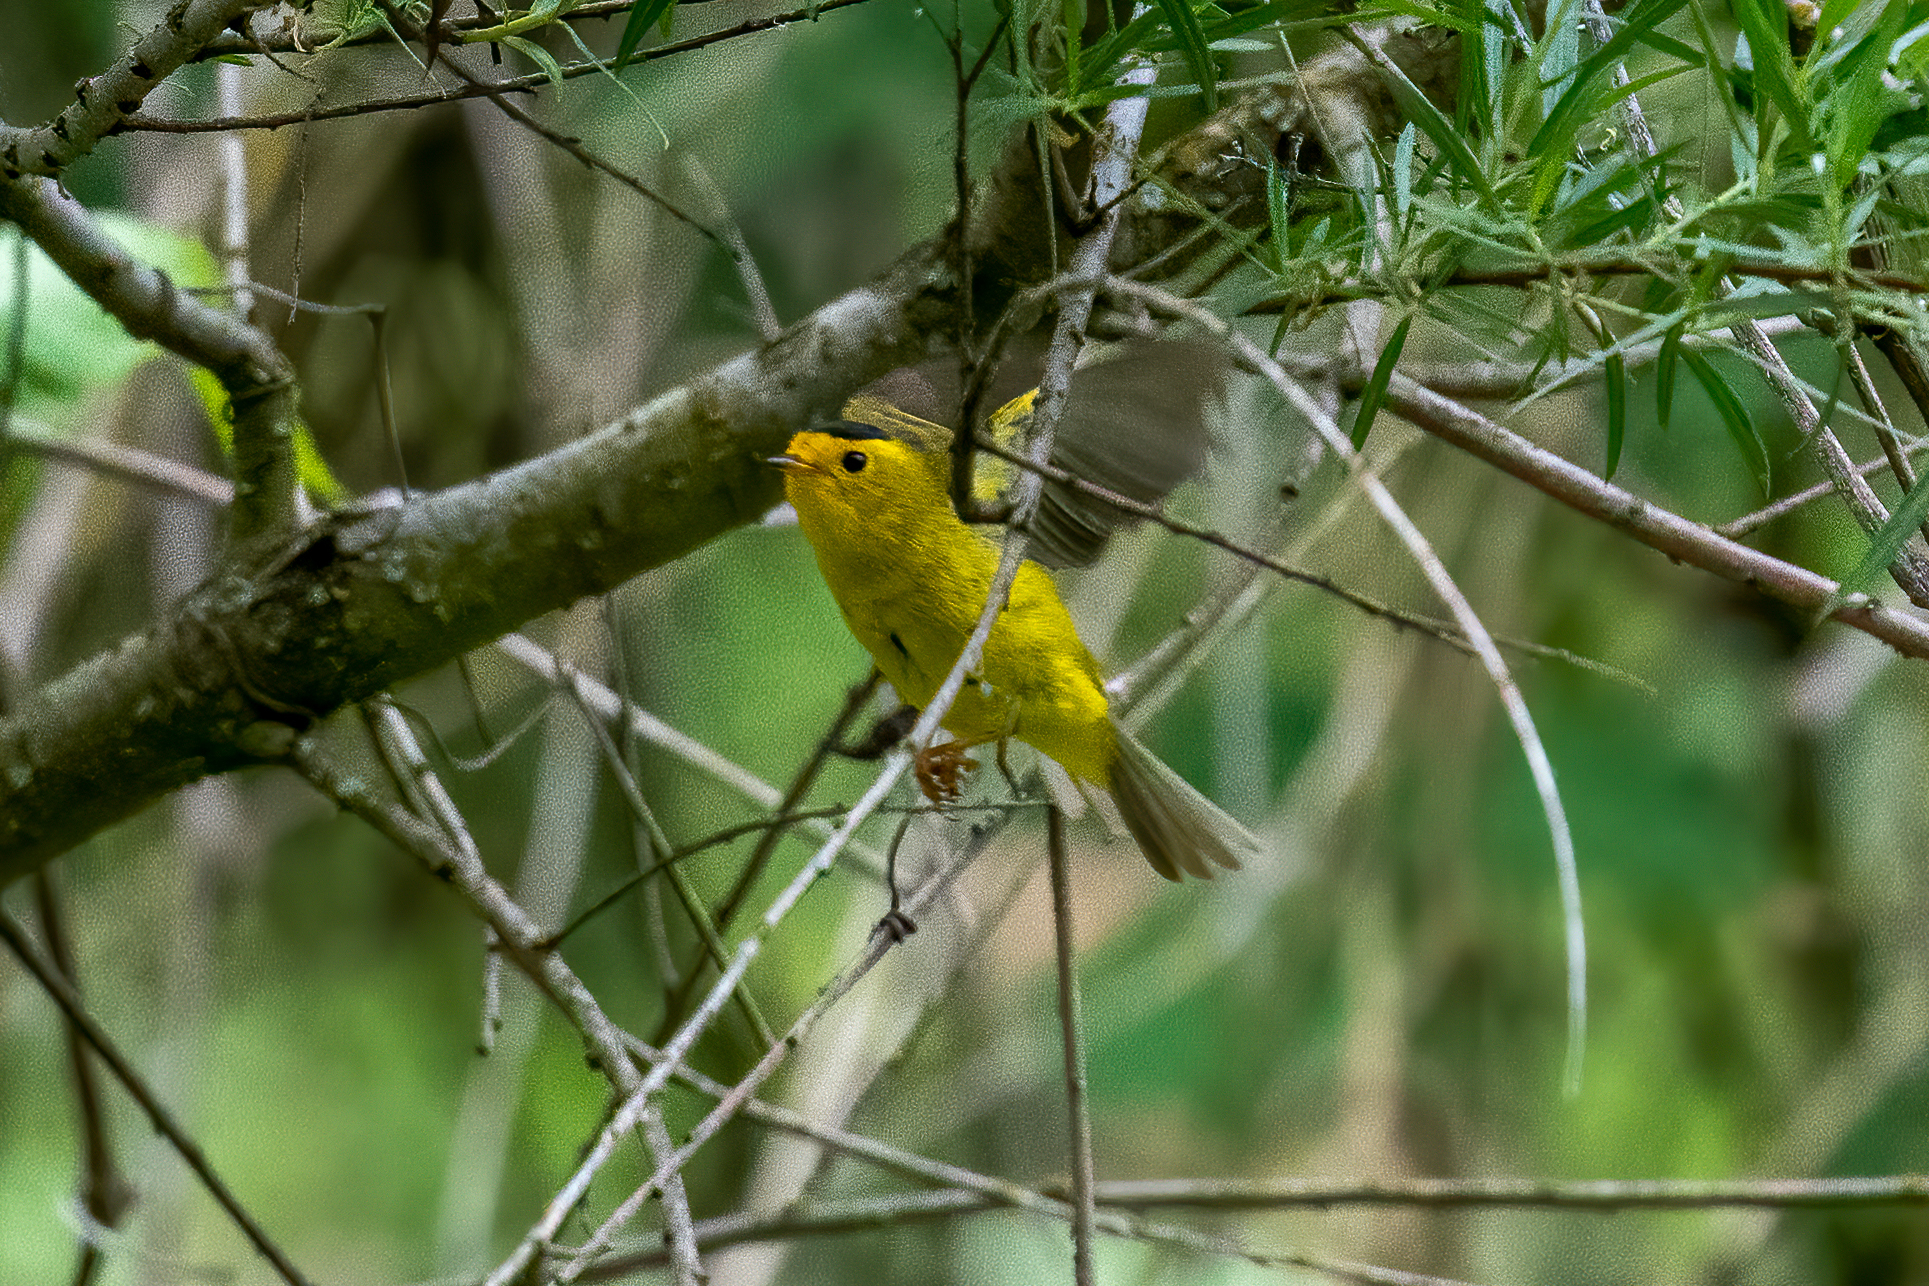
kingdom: Animalia
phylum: Chordata
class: Aves
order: Passeriformes
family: Parulidae
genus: Cardellina
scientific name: Cardellina pusilla
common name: Wilson's warbler
